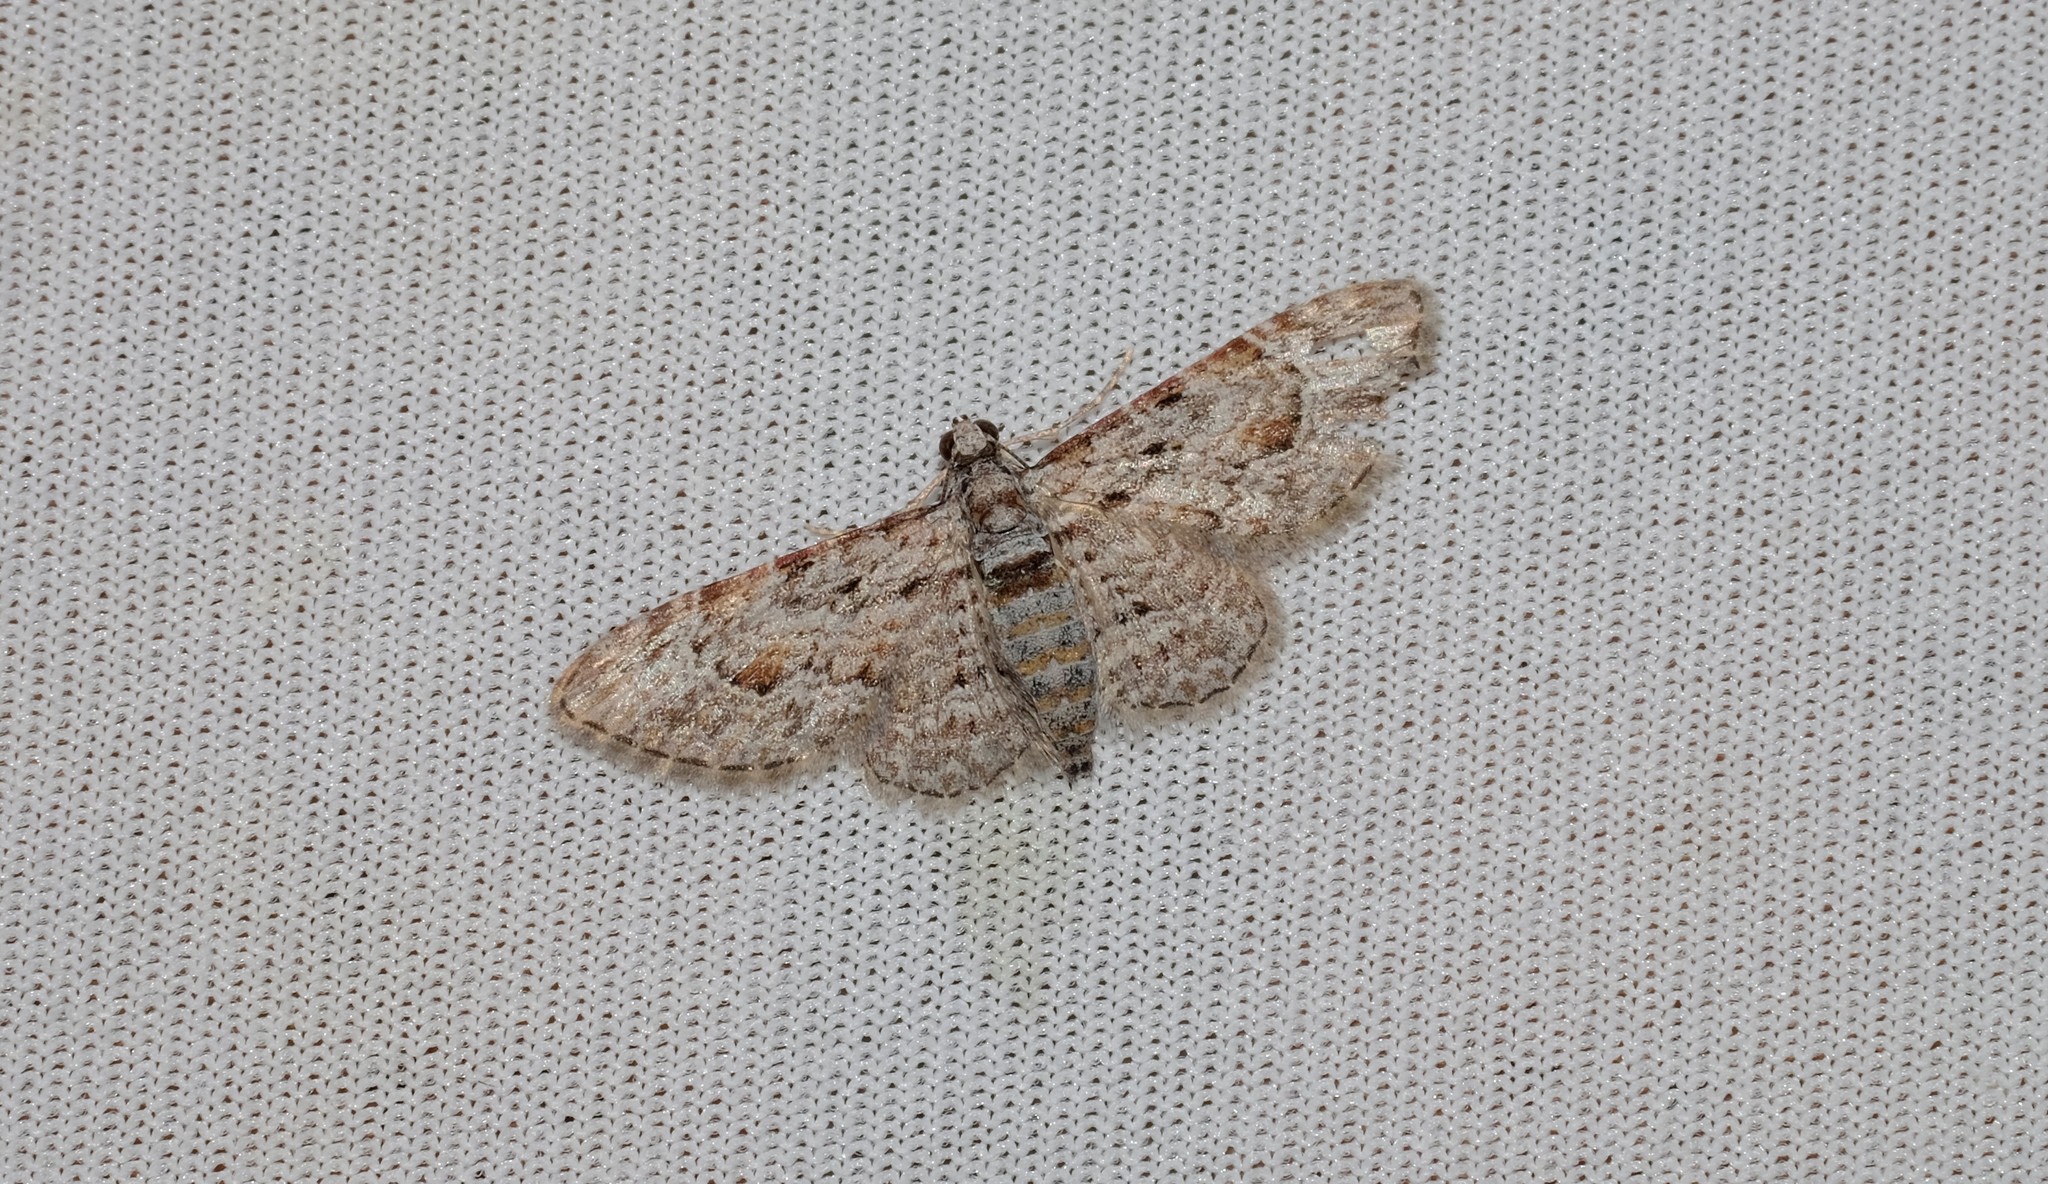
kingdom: Animalia
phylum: Arthropoda
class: Insecta
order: Lepidoptera
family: Geometridae
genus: Chloroclystis
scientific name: Chloroclystis insigillata
